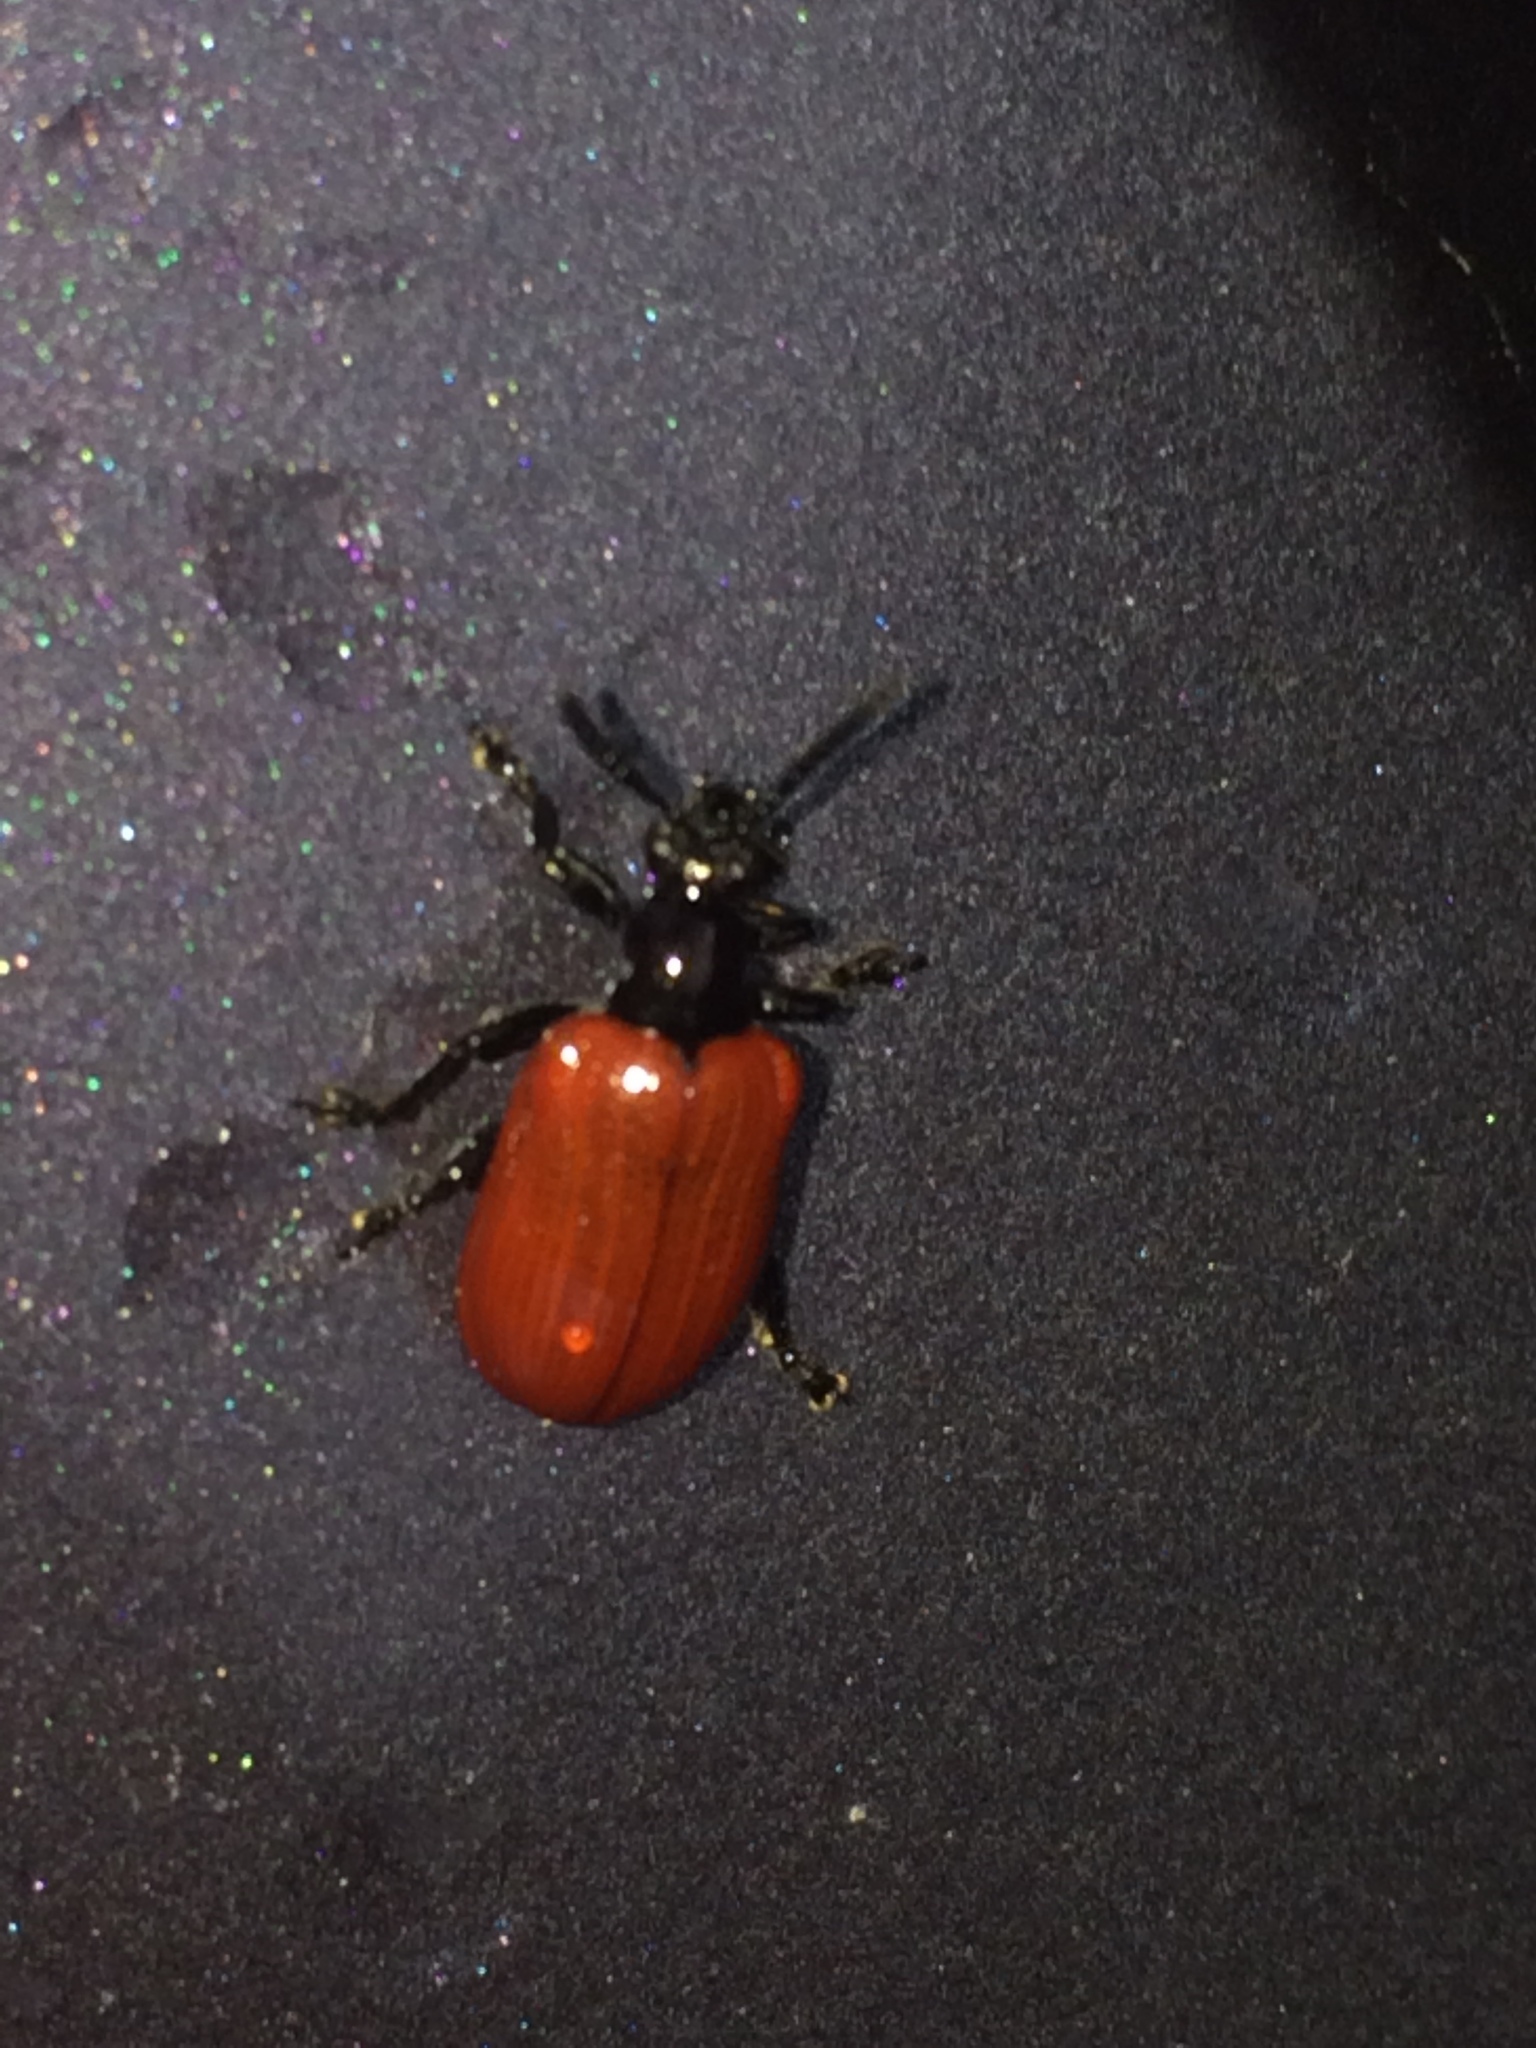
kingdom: Animalia
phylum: Arthropoda
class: Insecta
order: Coleoptera
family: Chrysomelidae
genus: Lilioceris
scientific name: Lilioceris cheni
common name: Leaf beetle
